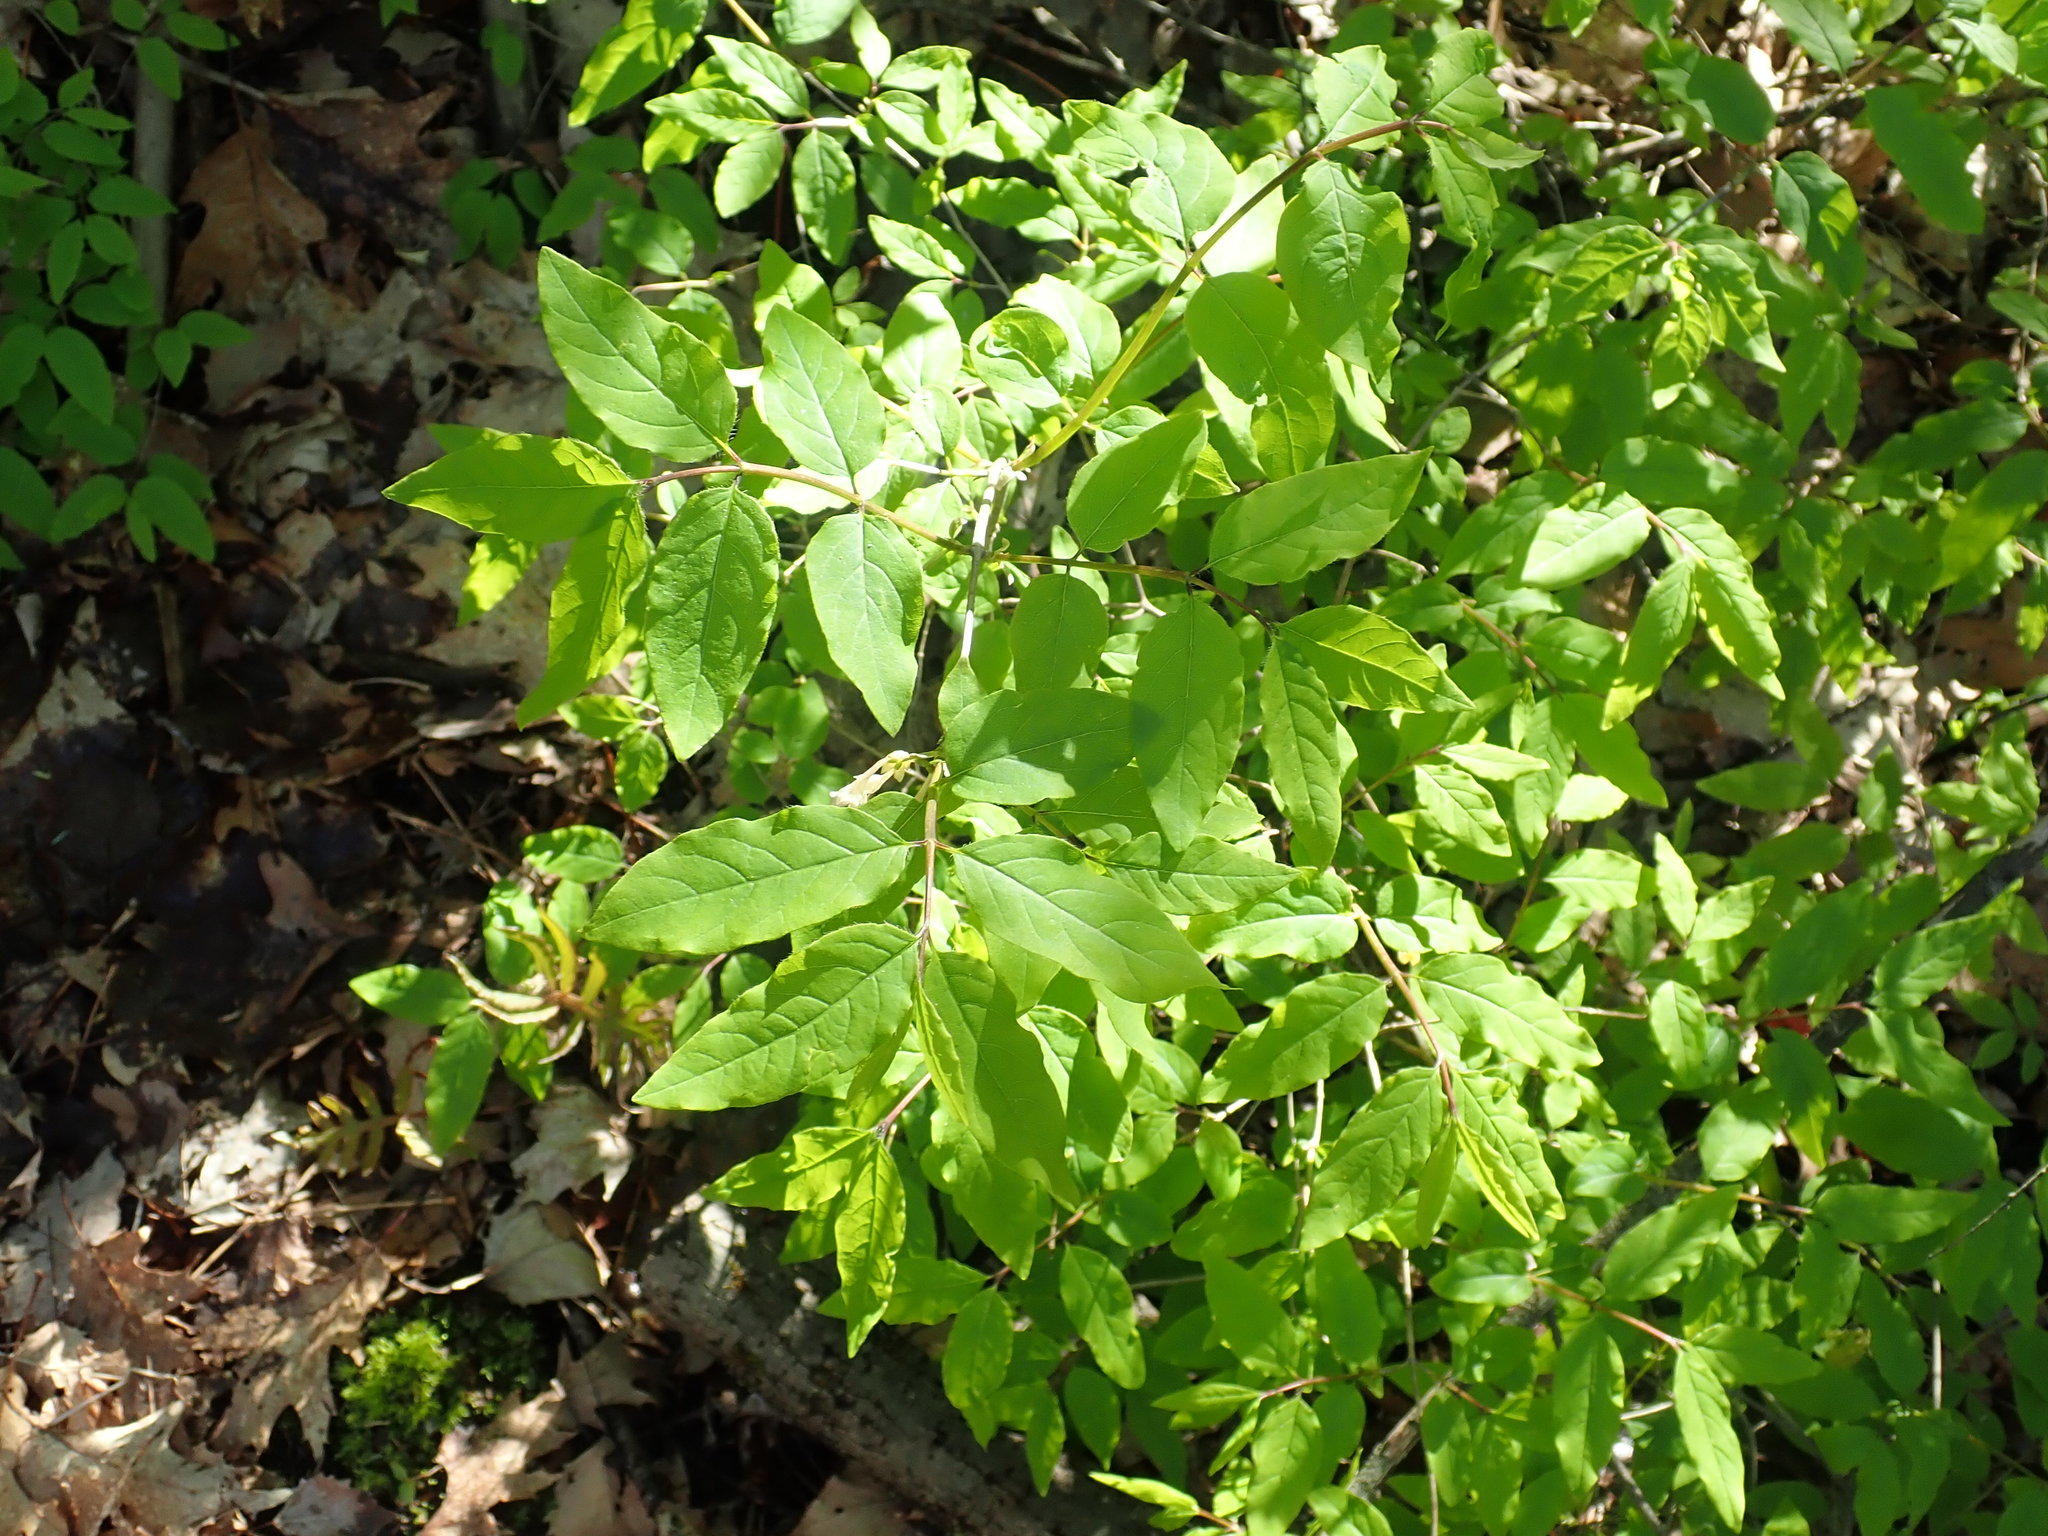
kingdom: Plantae
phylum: Tracheophyta
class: Magnoliopsida
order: Dipsacales
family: Caprifoliaceae
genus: Lonicera
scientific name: Lonicera canadensis
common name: American fly-honeysuckle
